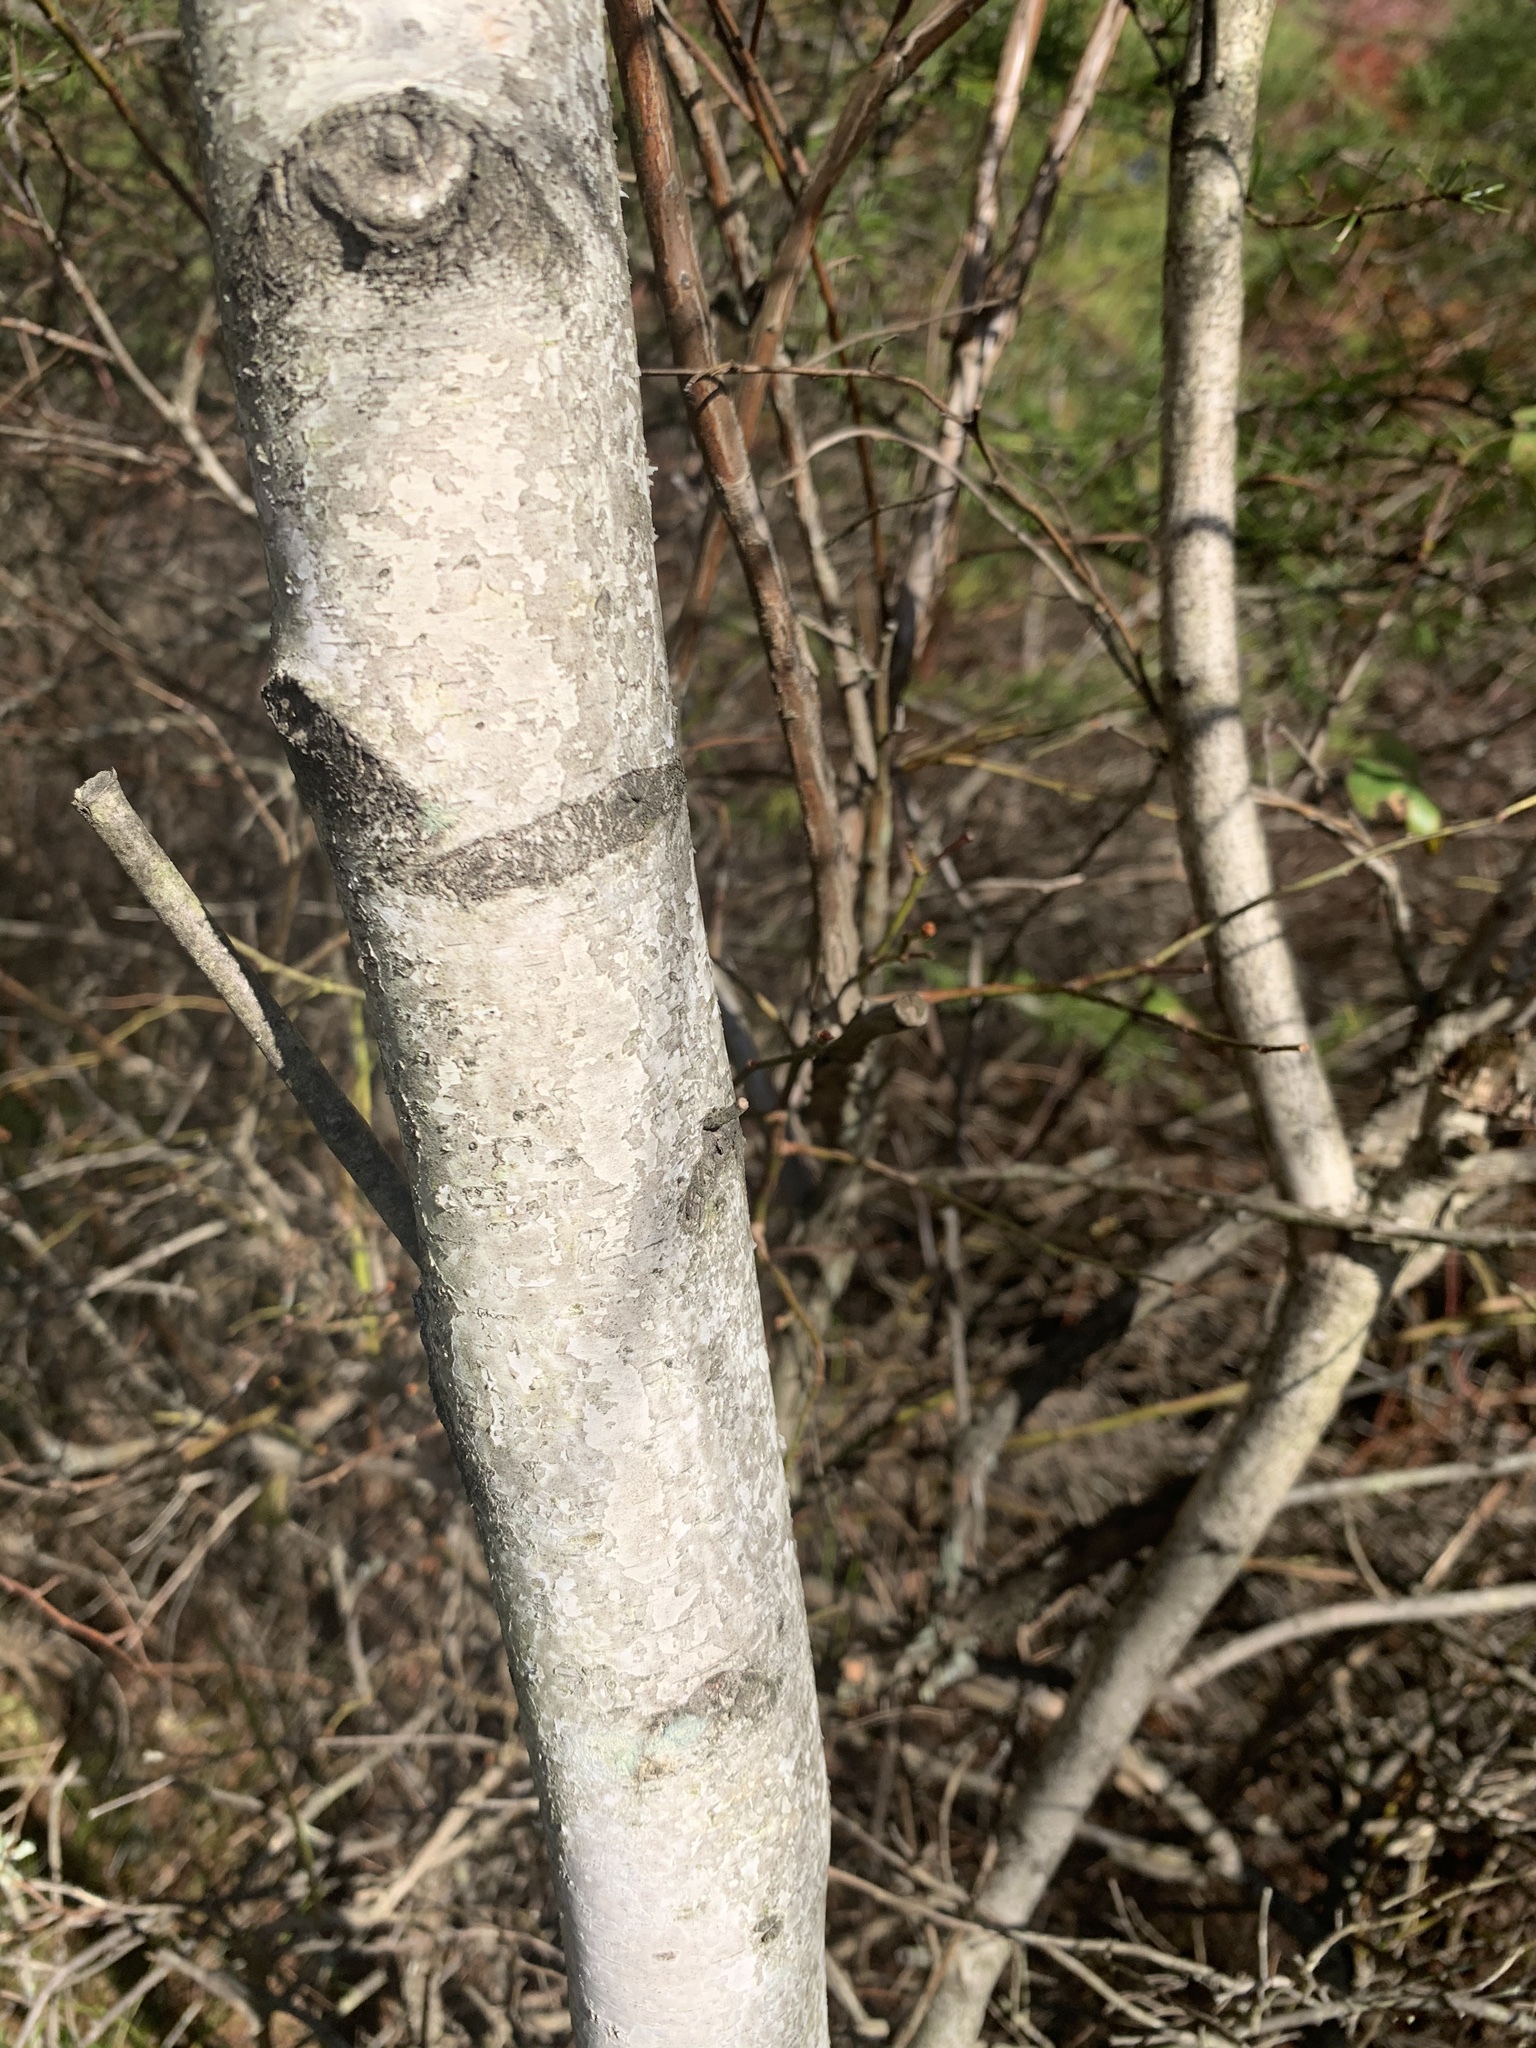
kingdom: Plantae
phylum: Tracheophyta
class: Magnoliopsida
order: Fagales
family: Betulaceae
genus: Betula
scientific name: Betula populifolia
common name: Fire birch
